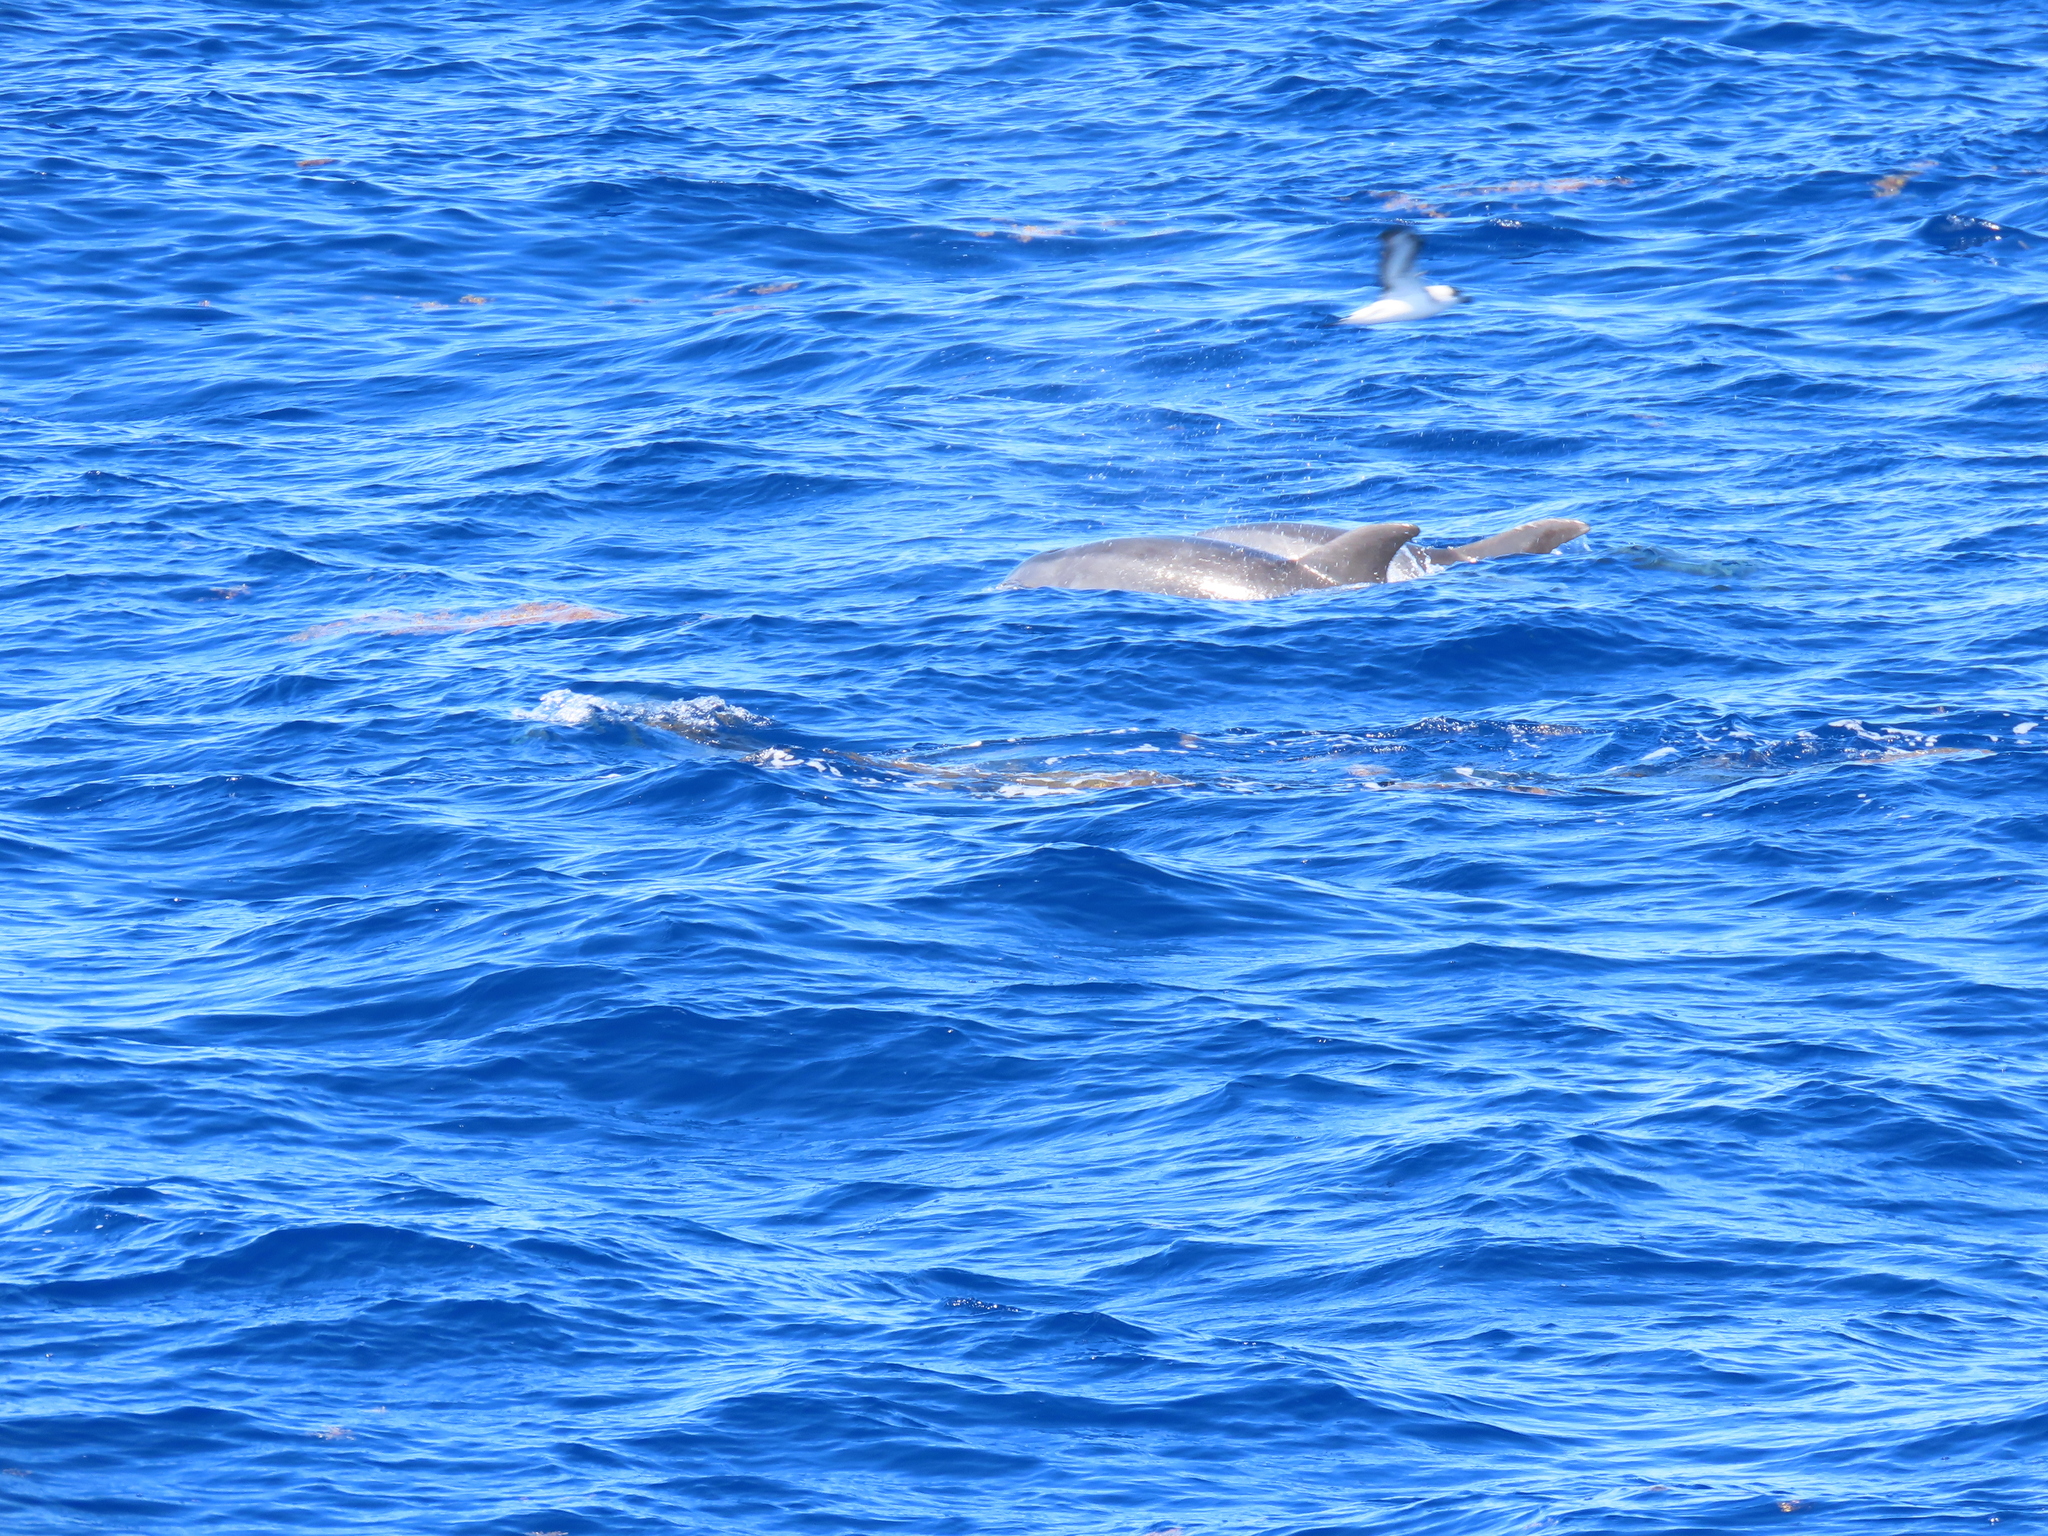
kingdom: Animalia
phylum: Chordata
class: Mammalia
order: Cetacea
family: Delphinidae
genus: Tursiops
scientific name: Tursiops truncatus
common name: Bottlenose dolphin
